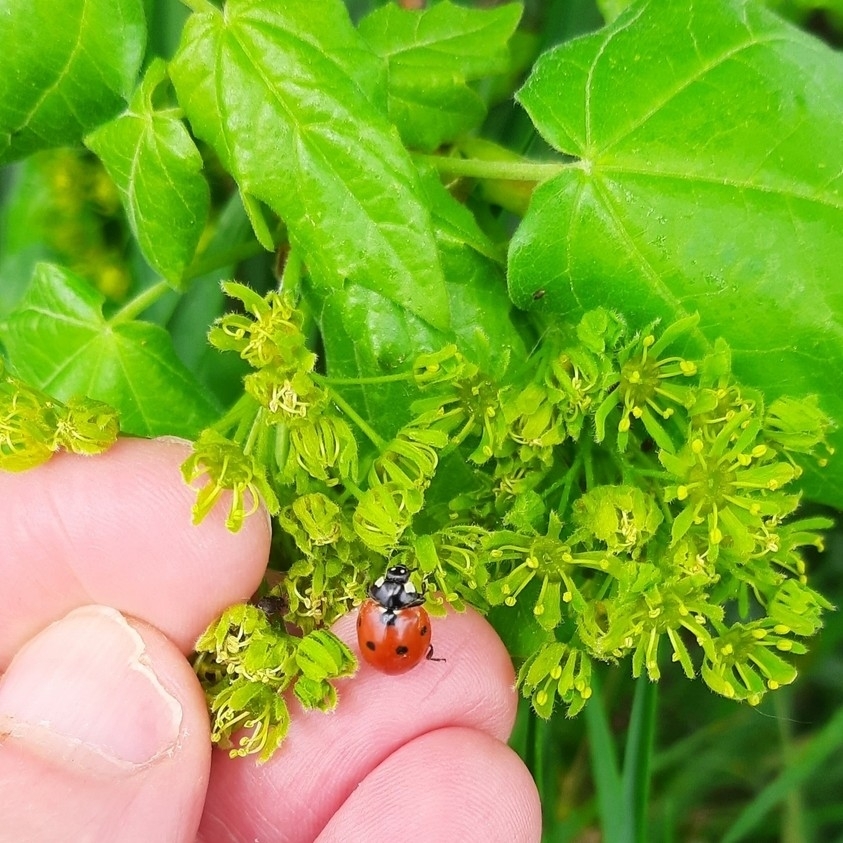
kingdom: Animalia
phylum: Arthropoda
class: Insecta
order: Coleoptera
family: Coccinellidae
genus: Coccinella
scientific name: Coccinella septempunctata
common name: Sevenspotted lady beetle
